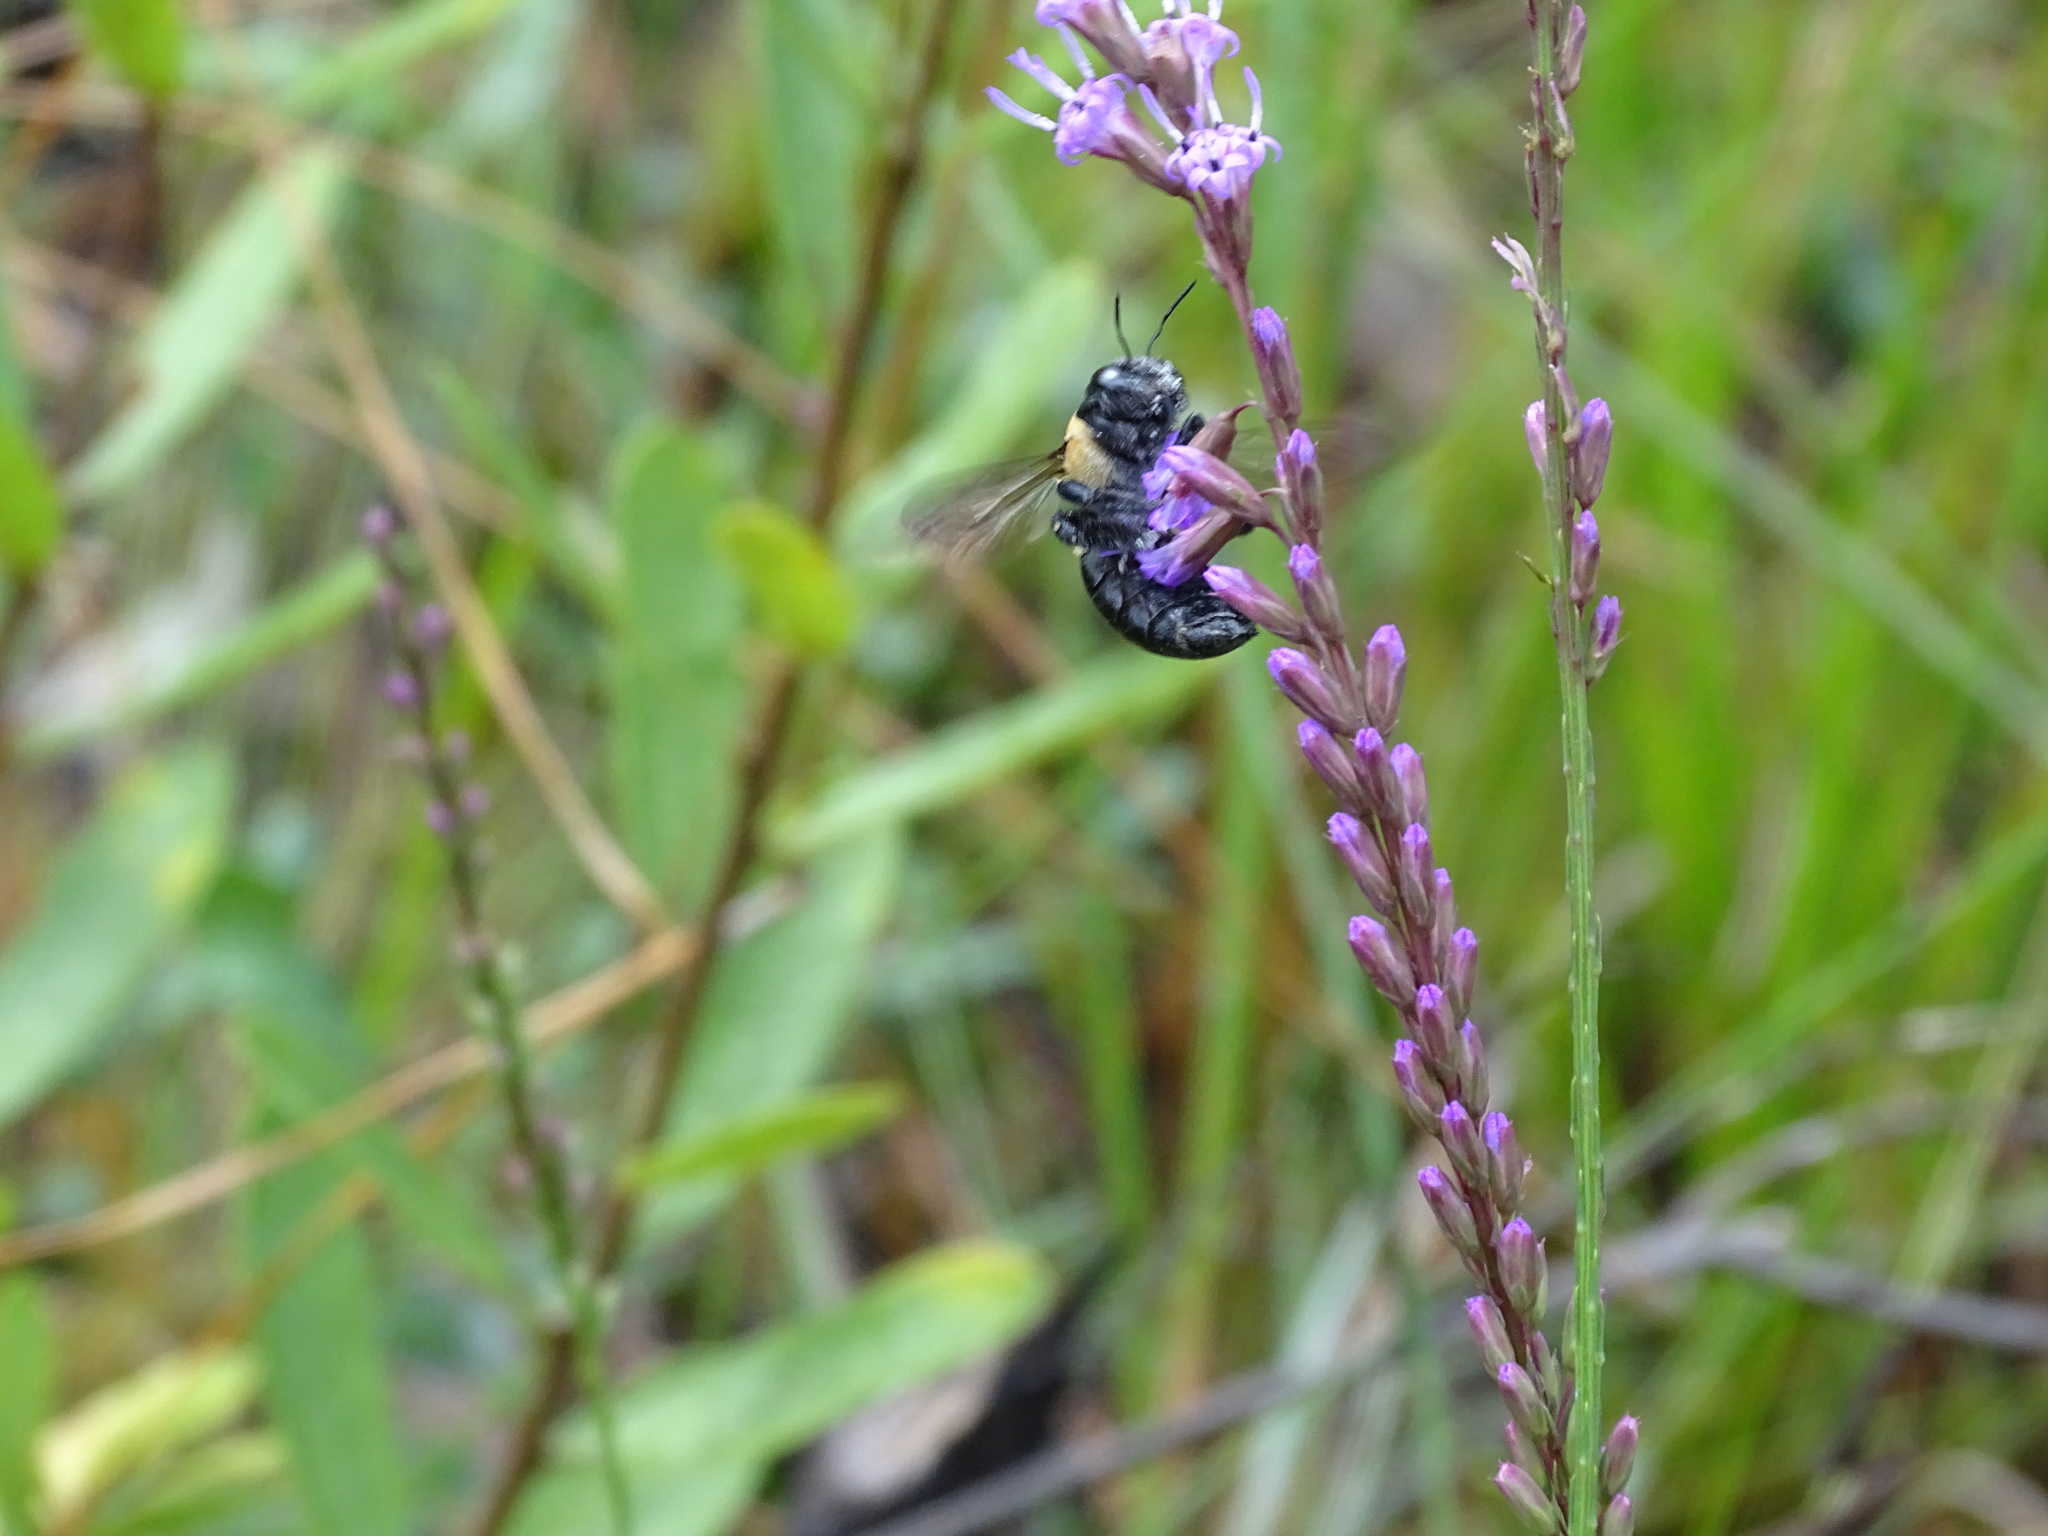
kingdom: Animalia
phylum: Arthropoda
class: Insecta
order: Hymenoptera
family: Apidae
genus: Xylocopa
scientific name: Xylocopa virginica
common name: Carpenter bee
